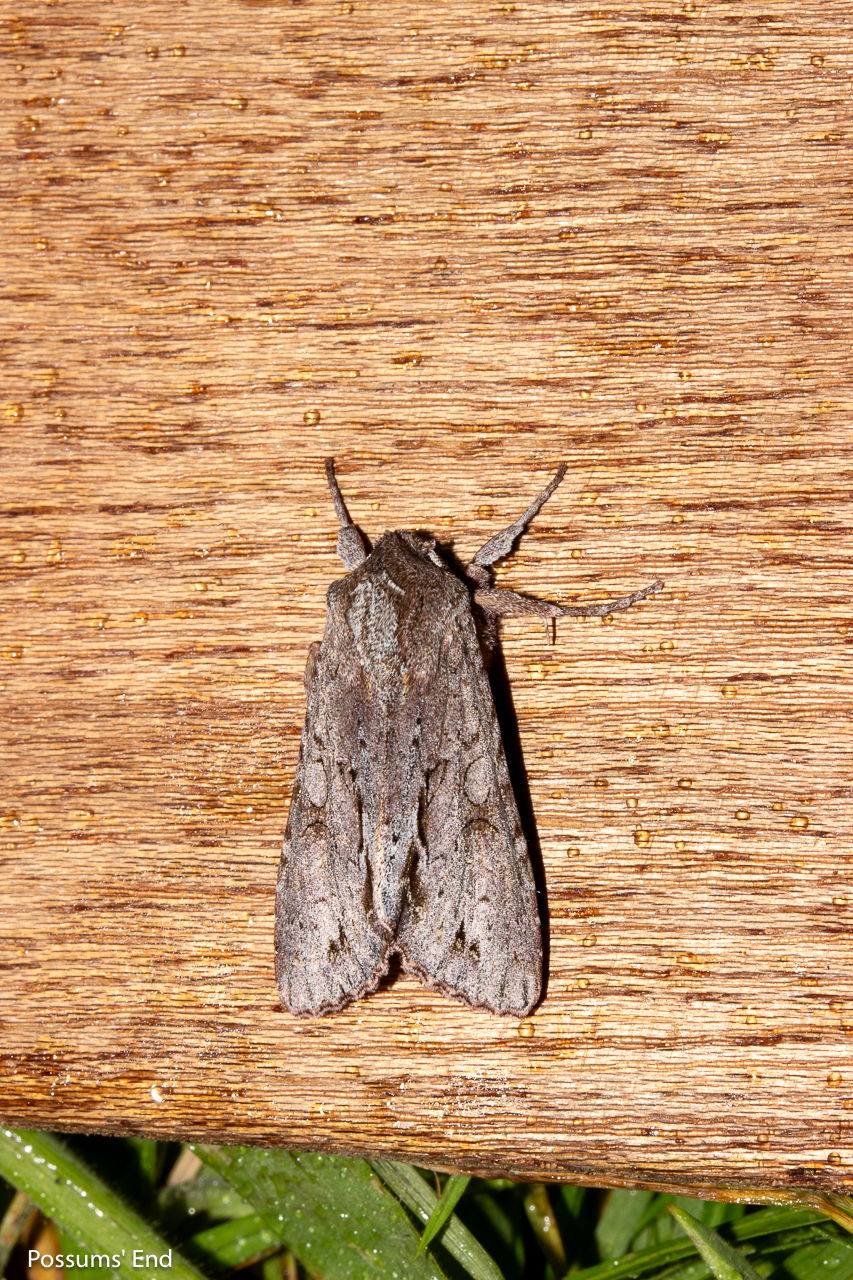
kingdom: Animalia
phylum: Arthropoda
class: Insecta
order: Lepidoptera
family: Noctuidae
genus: Ichneutica
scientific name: Ichneutica
